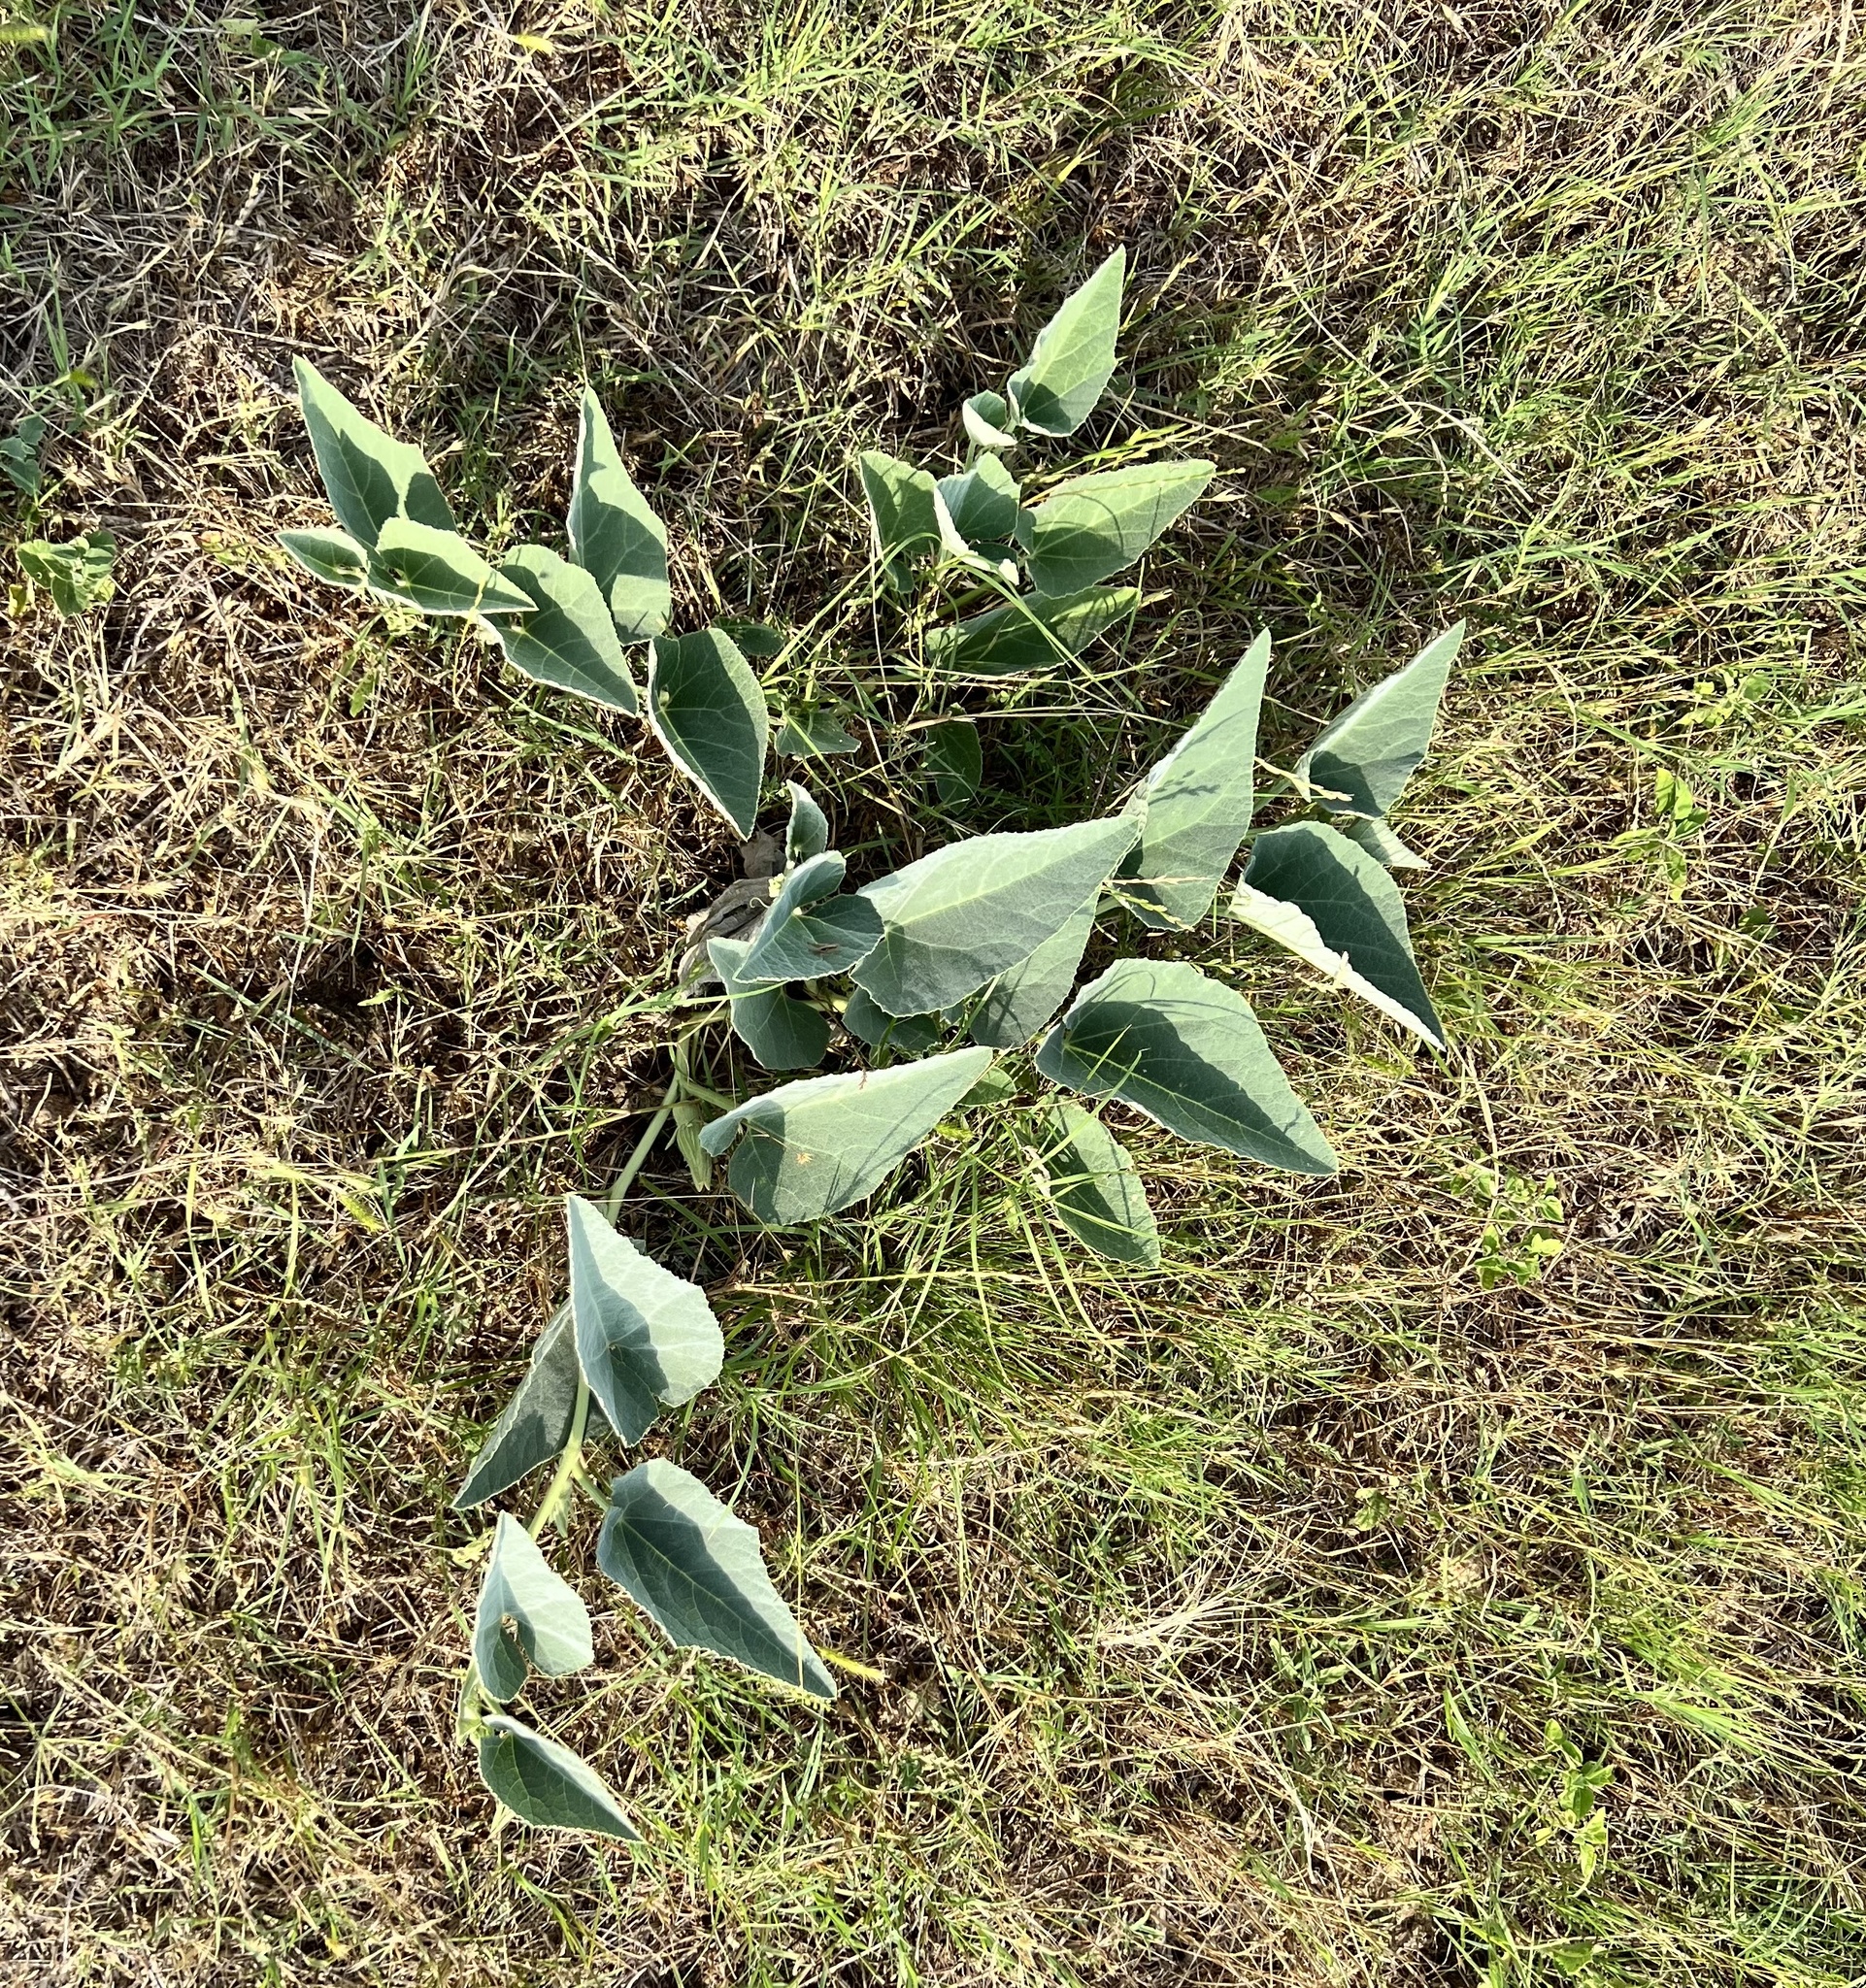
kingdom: Plantae
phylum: Tracheophyta
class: Magnoliopsida
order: Cucurbitales
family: Cucurbitaceae
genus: Cucurbita
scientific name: Cucurbita foetidissima
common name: Buffalo gourd
